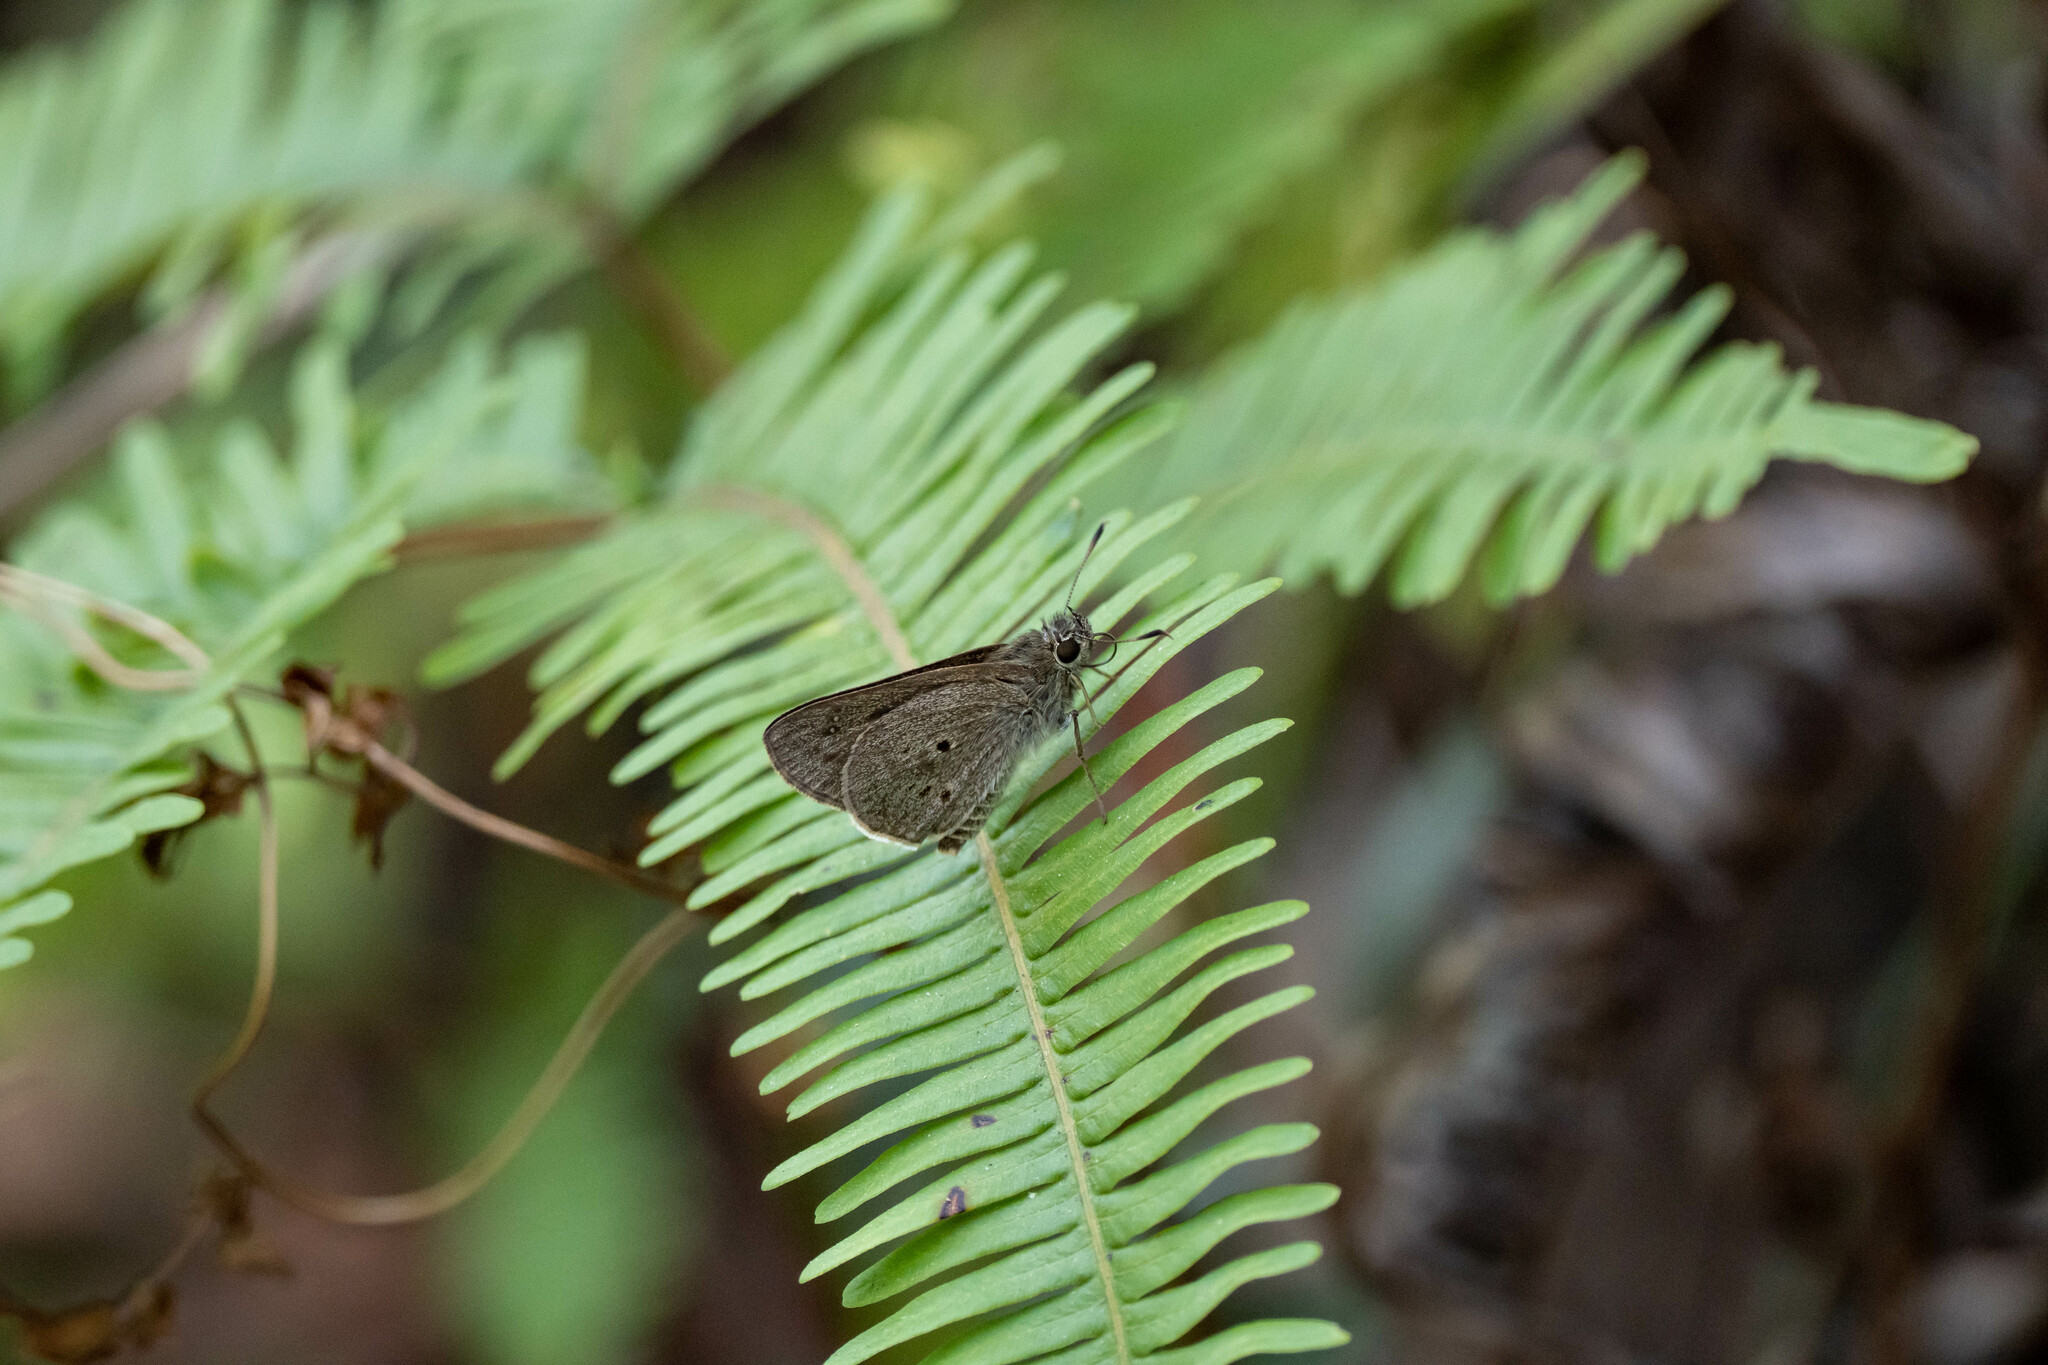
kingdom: Animalia
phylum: Arthropoda
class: Insecta
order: Lepidoptera
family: Hesperiidae
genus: Suastus
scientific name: Suastus gremius
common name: Indian palm bob
